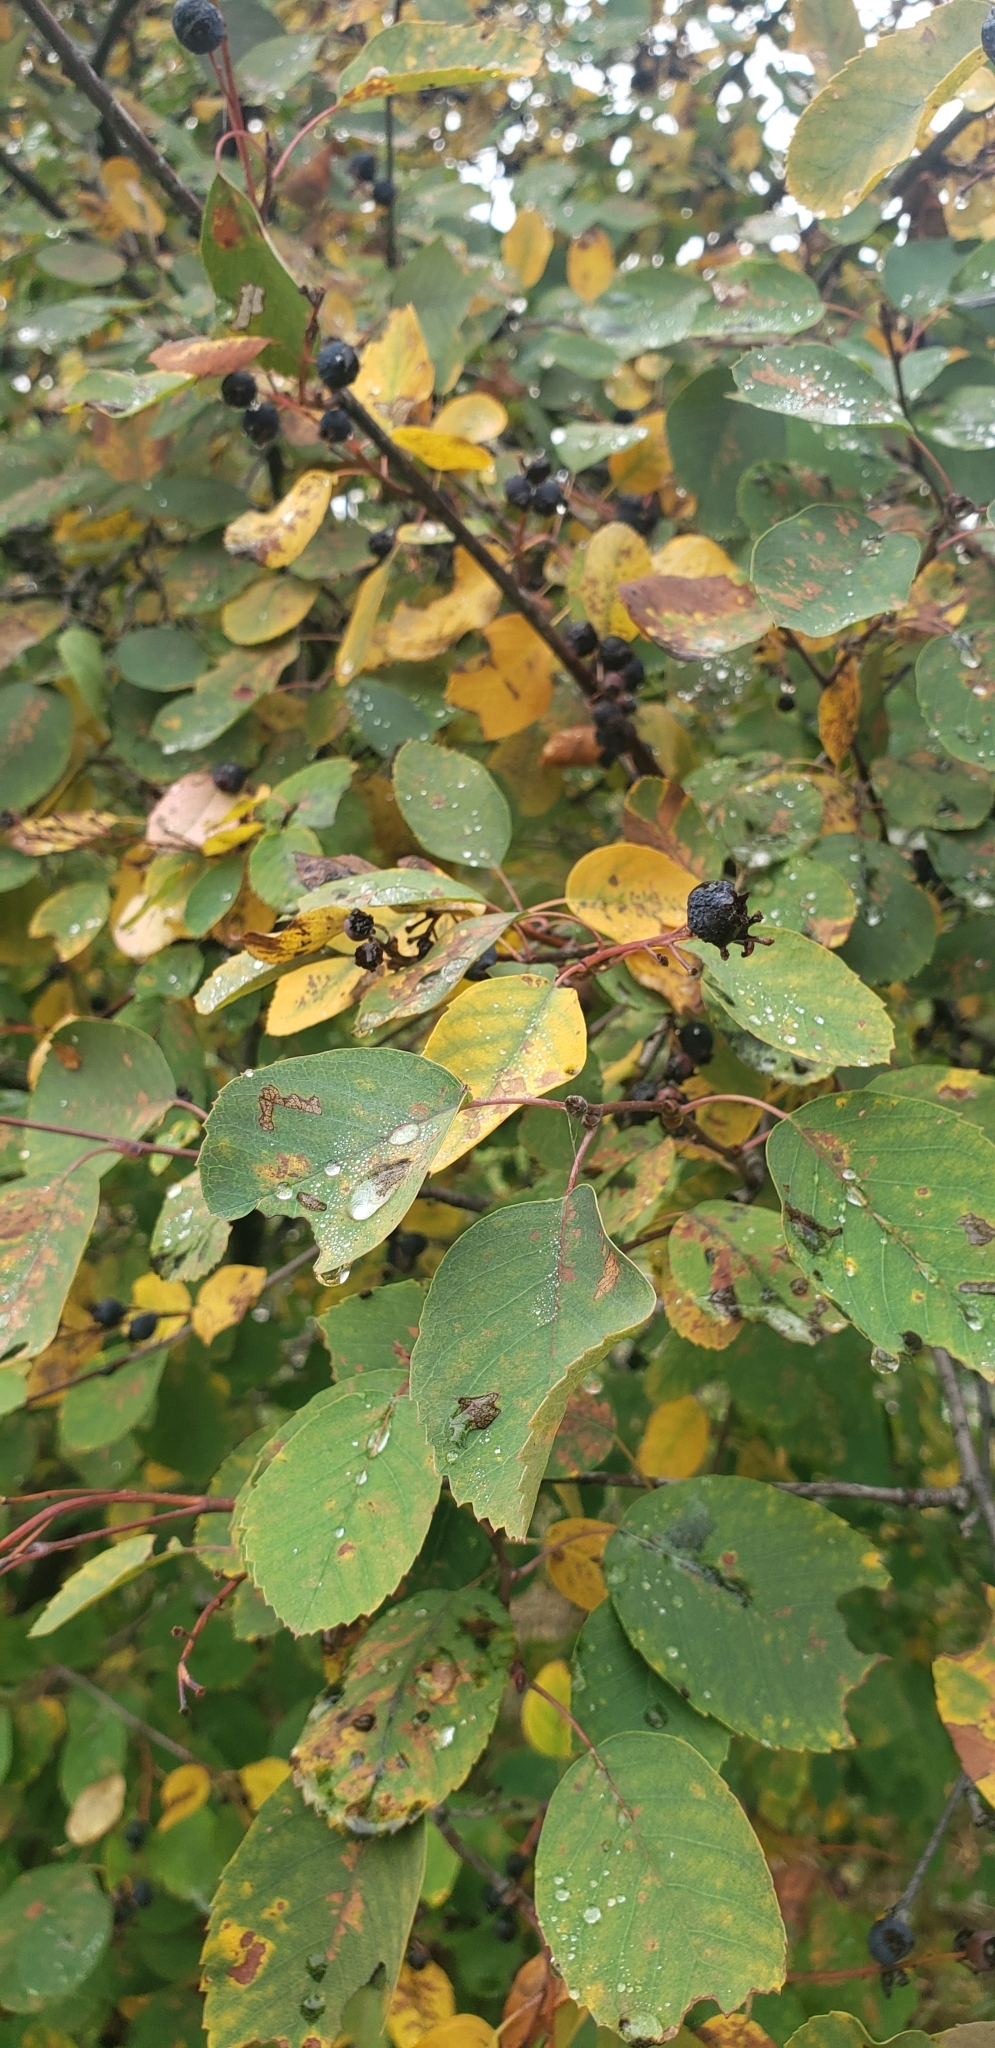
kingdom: Plantae
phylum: Tracheophyta
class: Magnoliopsida
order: Rosales
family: Rosaceae
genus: Amelanchier
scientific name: Amelanchier alnifolia
